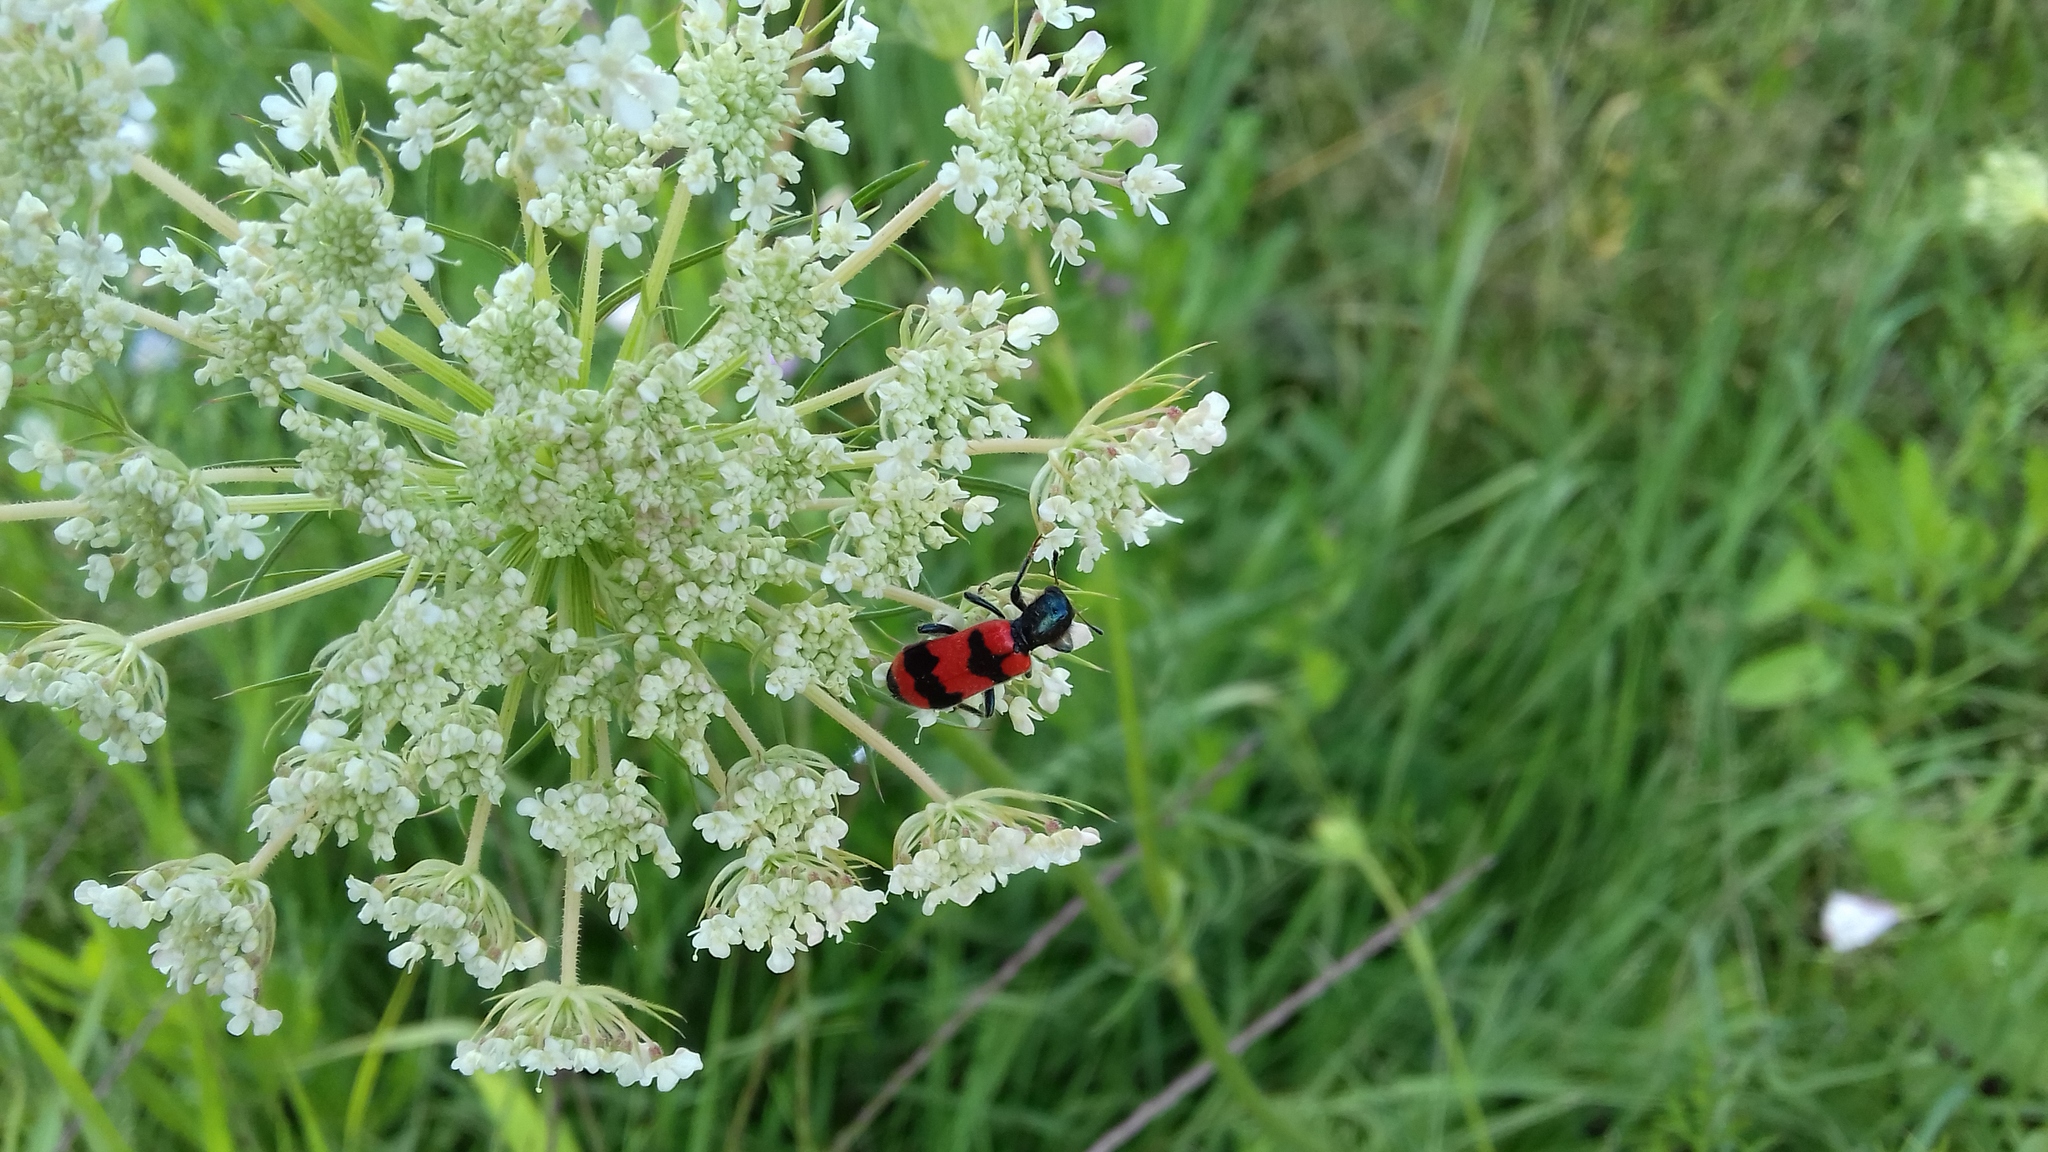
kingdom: Animalia
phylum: Arthropoda
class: Insecta
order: Coleoptera
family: Cleridae
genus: Trichodes
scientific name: Trichodes apiarius
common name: Bee-eating beetle
